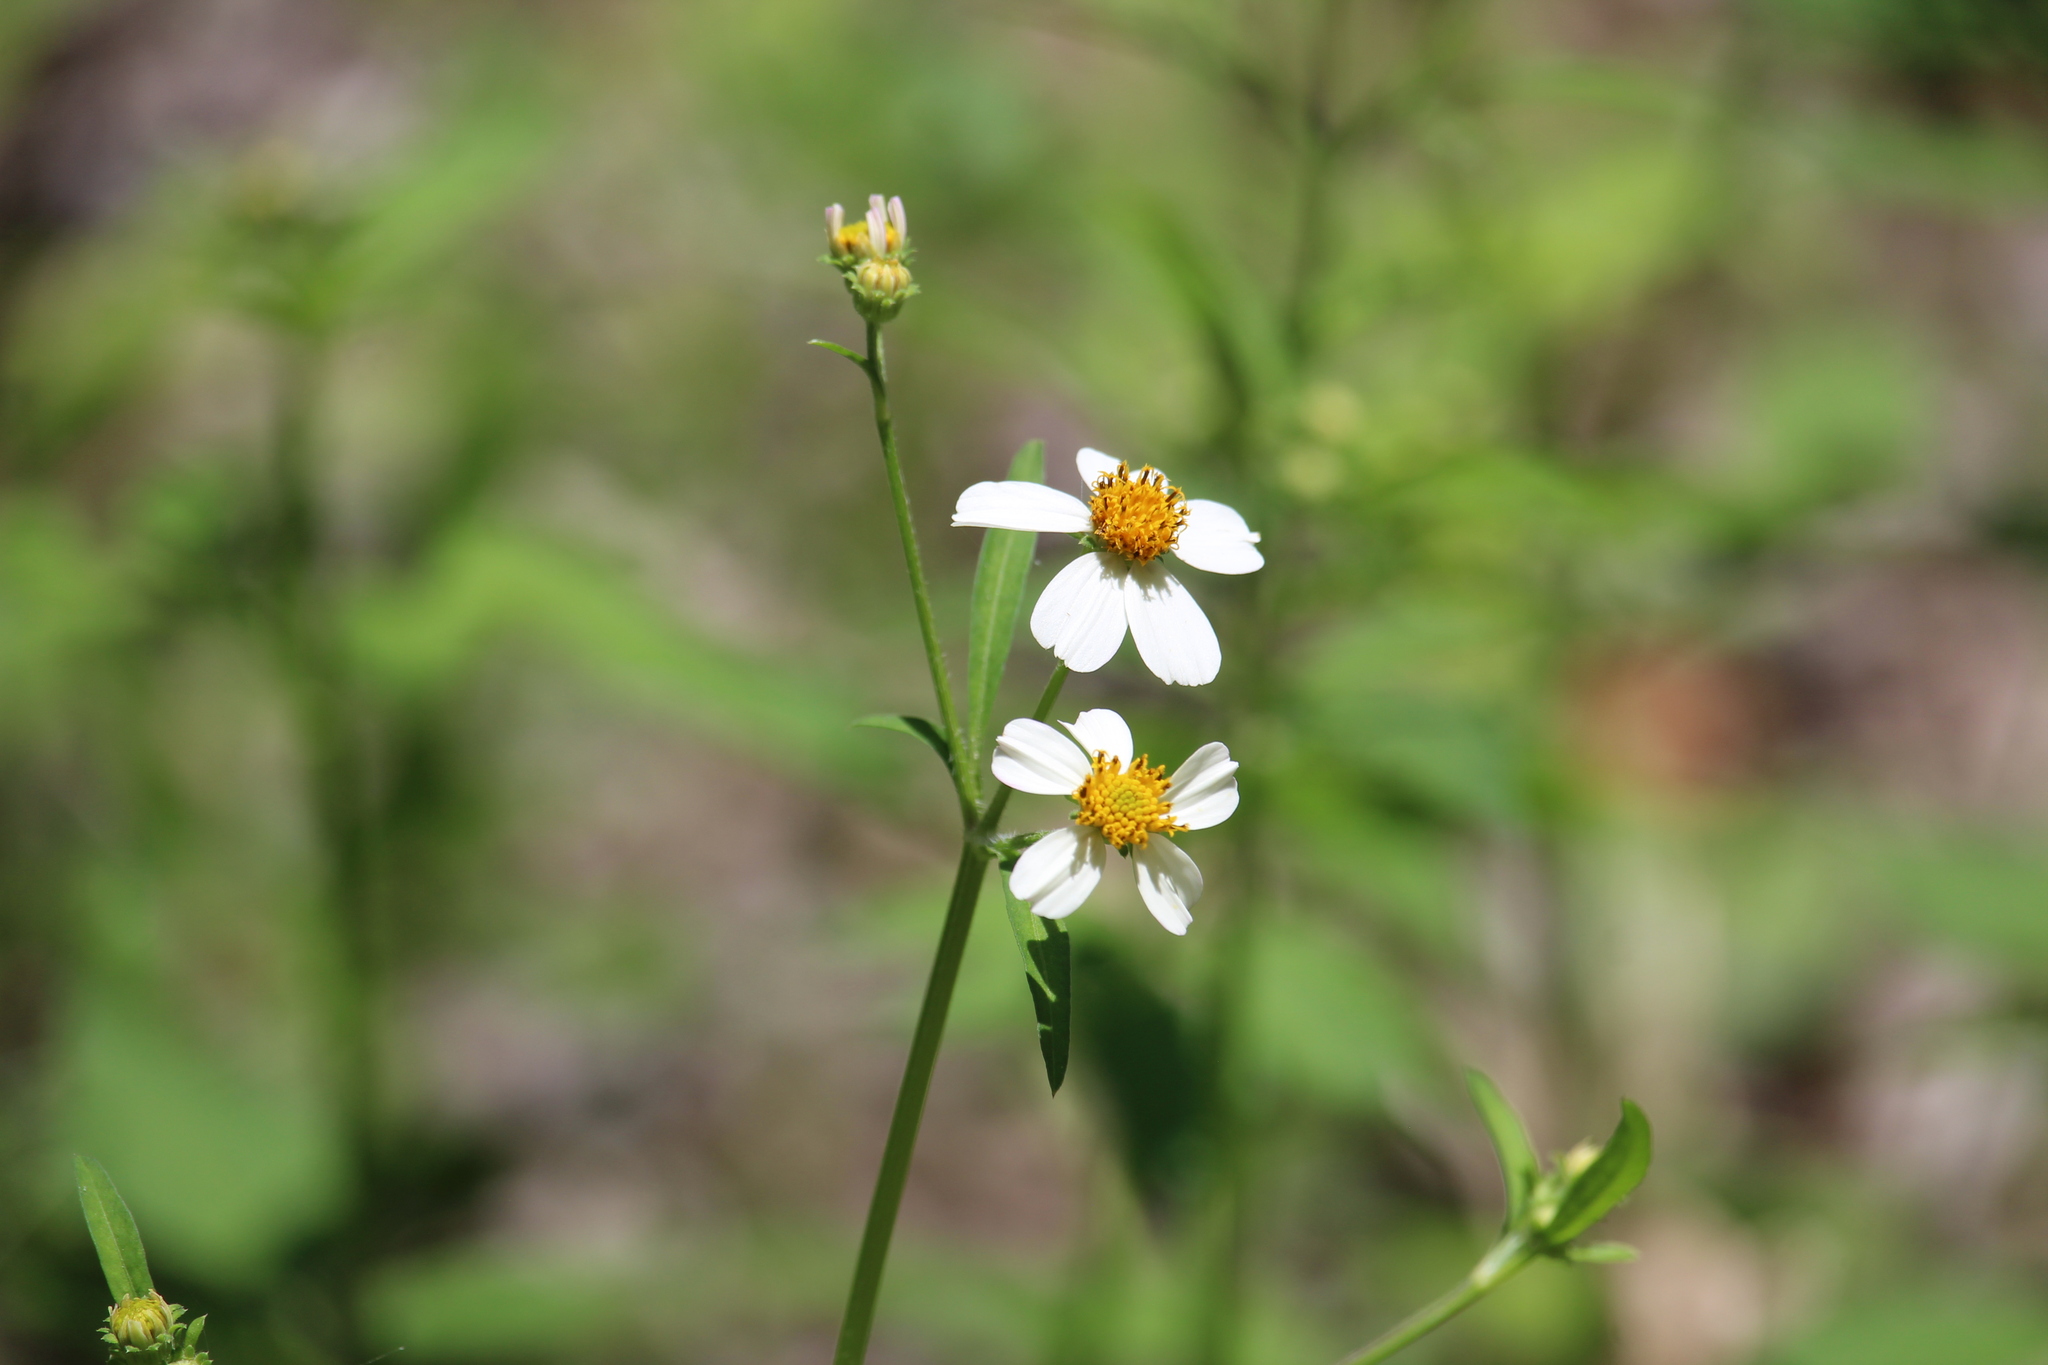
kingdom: Plantae
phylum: Tracheophyta
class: Magnoliopsida
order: Asterales
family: Asteraceae
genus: Bidens
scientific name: Bidens alba
